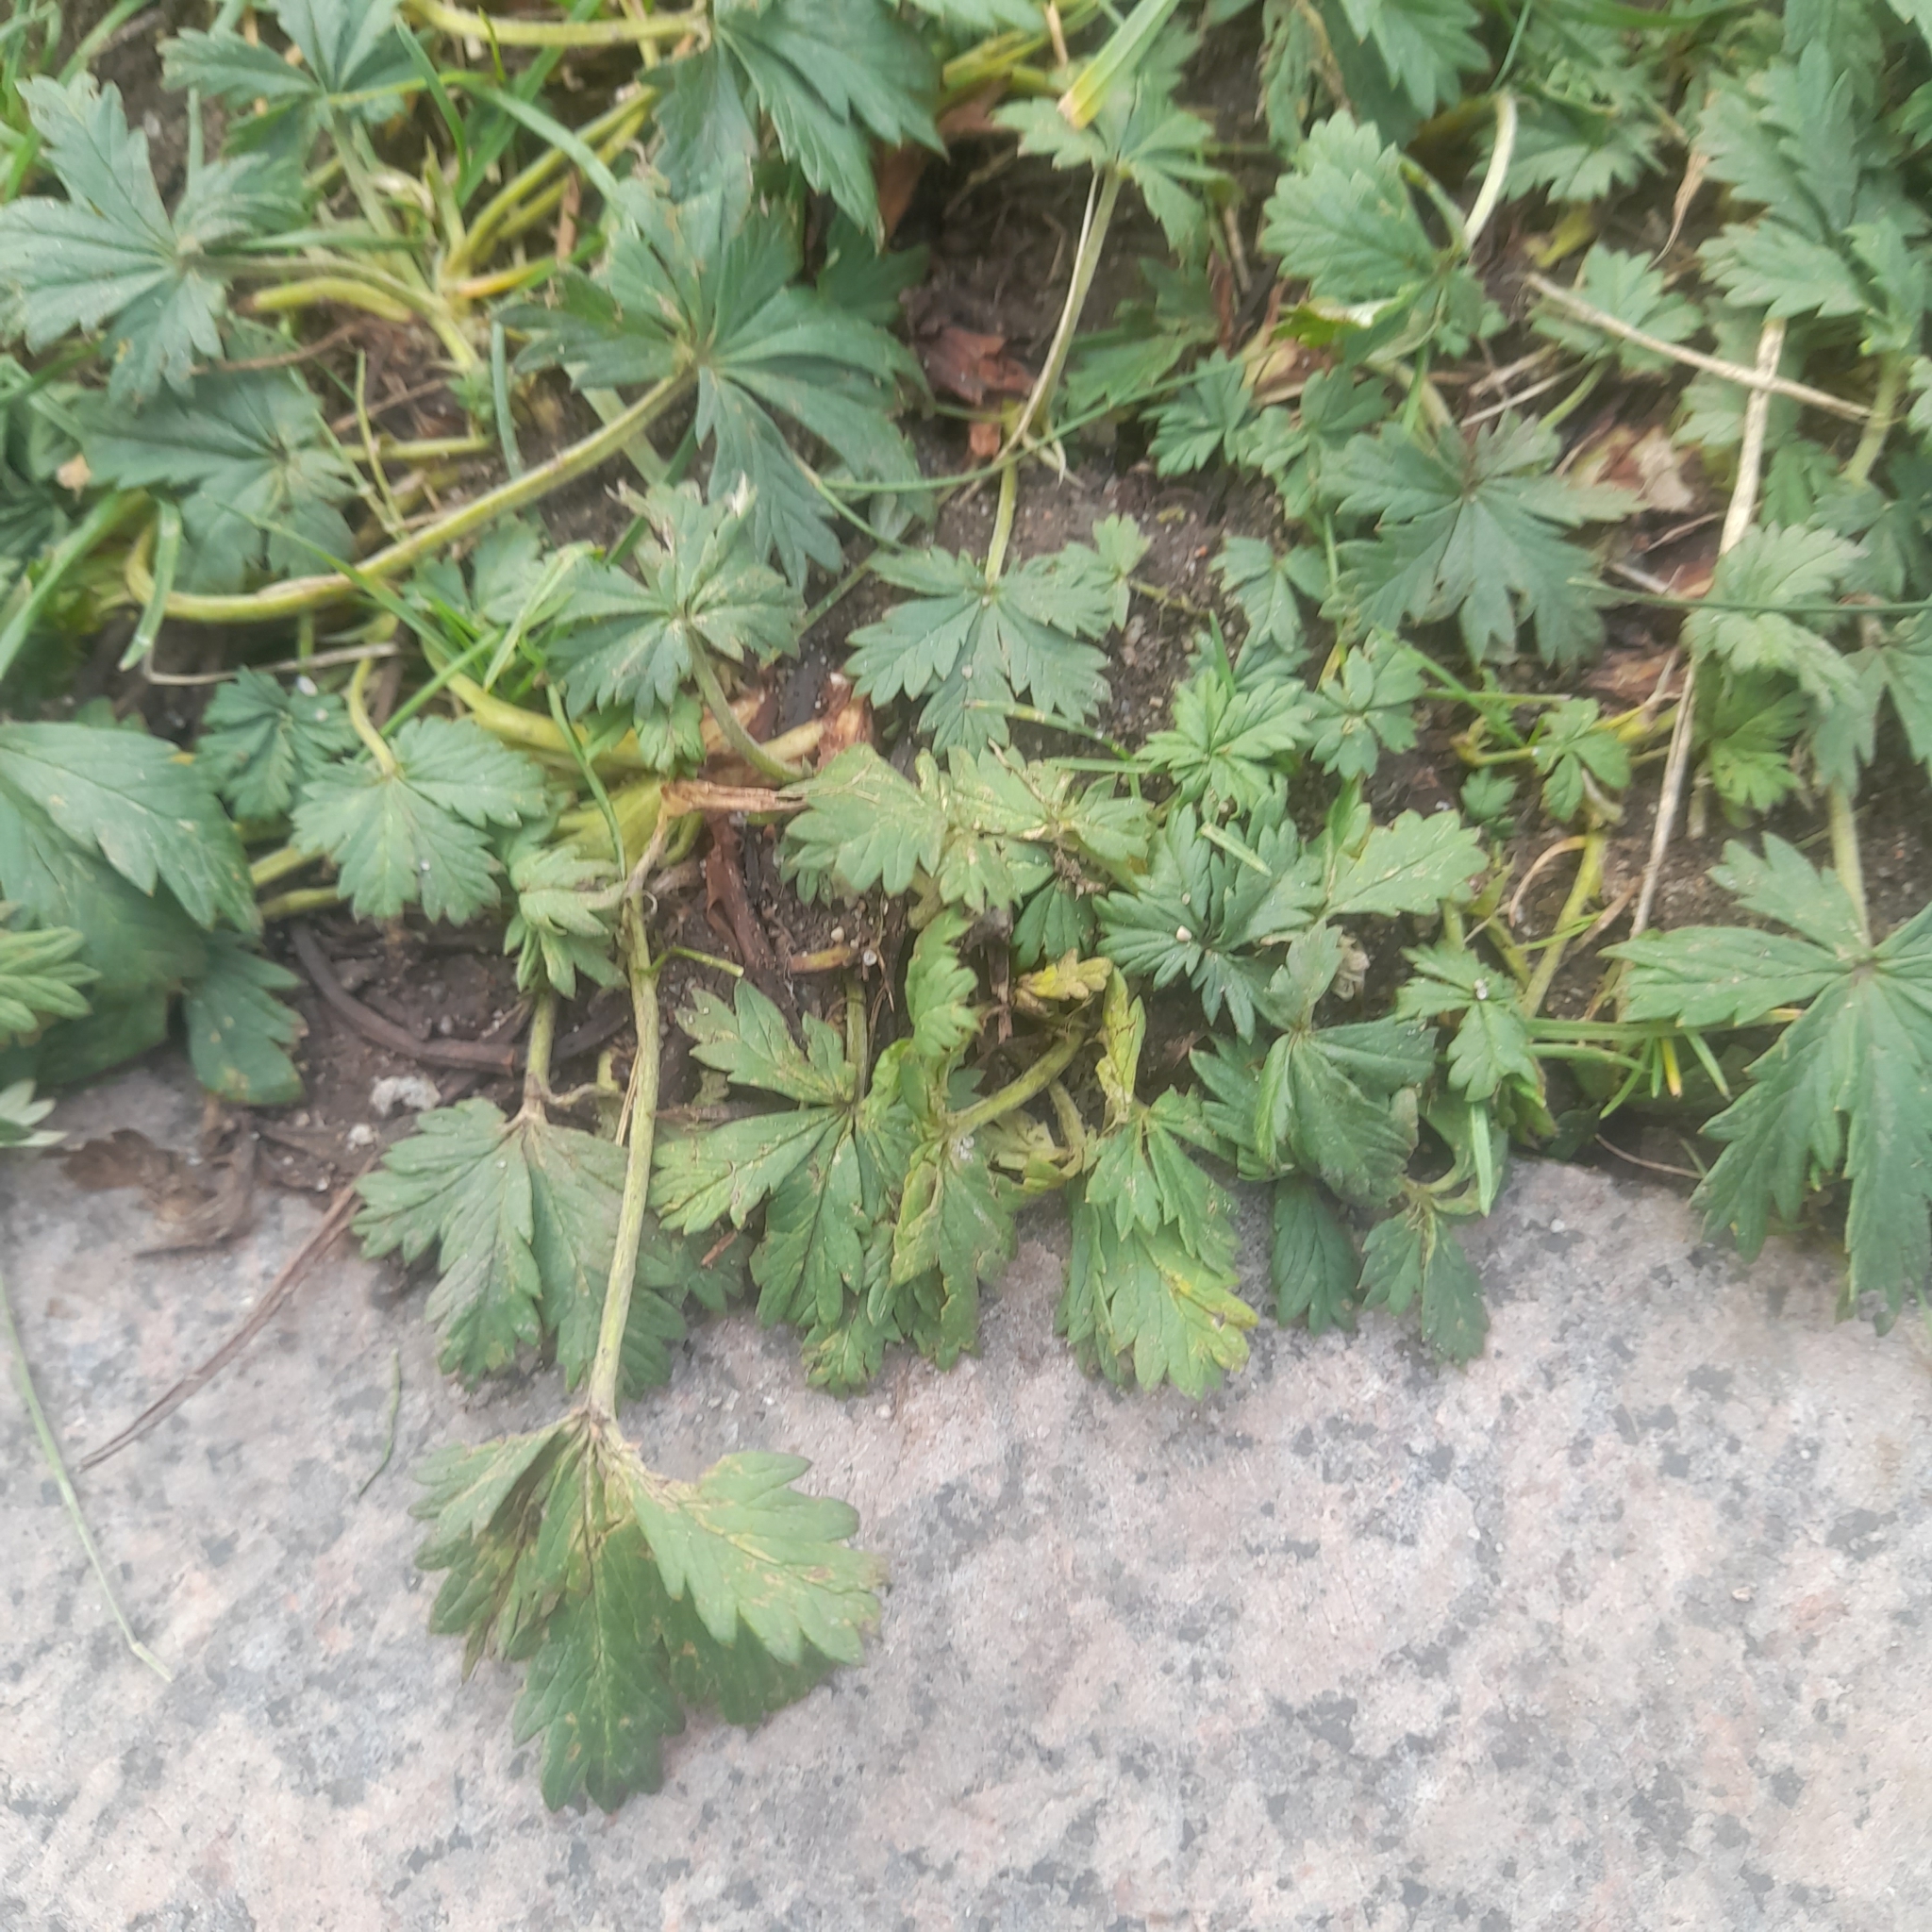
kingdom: Plantae
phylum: Tracheophyta
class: Magnoliopsida
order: Rosales
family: Rosaceae
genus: Potentilla
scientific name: Potentilla argentea
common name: Hoary cinquefoil
